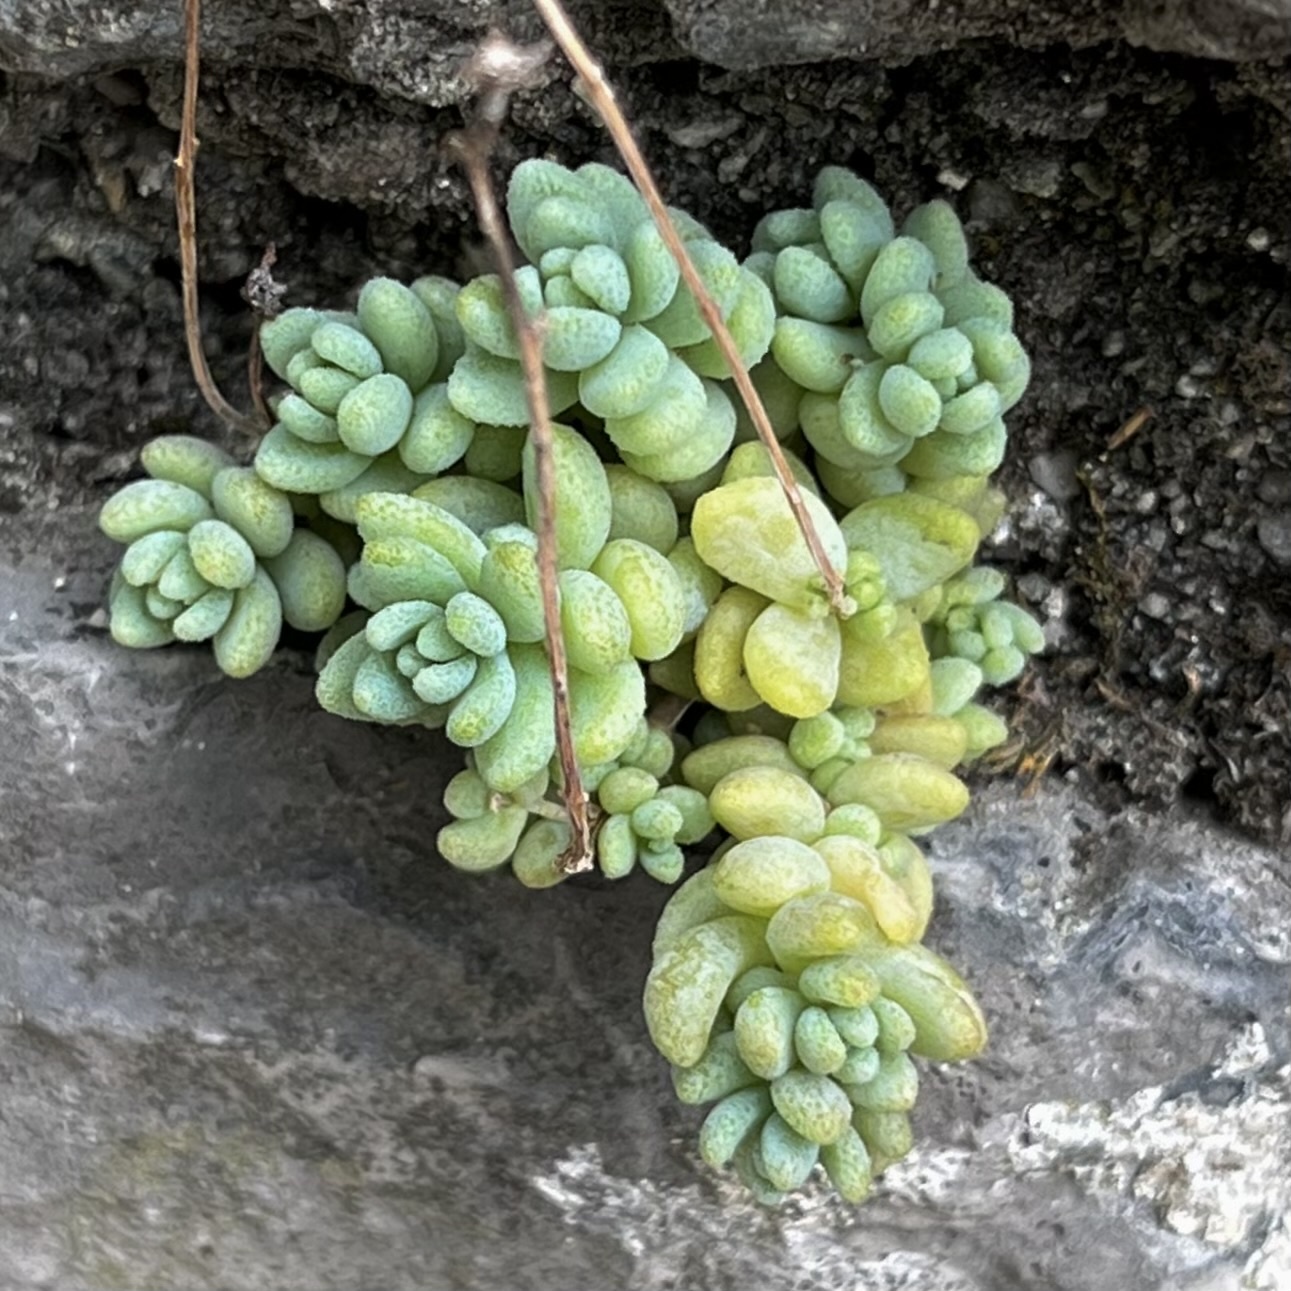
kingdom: Plantae
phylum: Tracheophyta
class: Magnoliopsida
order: Saxifragales
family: Crassulaceae
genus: Sedum
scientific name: Sedum dasyphyllum
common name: Thick-leaf stonecrop
